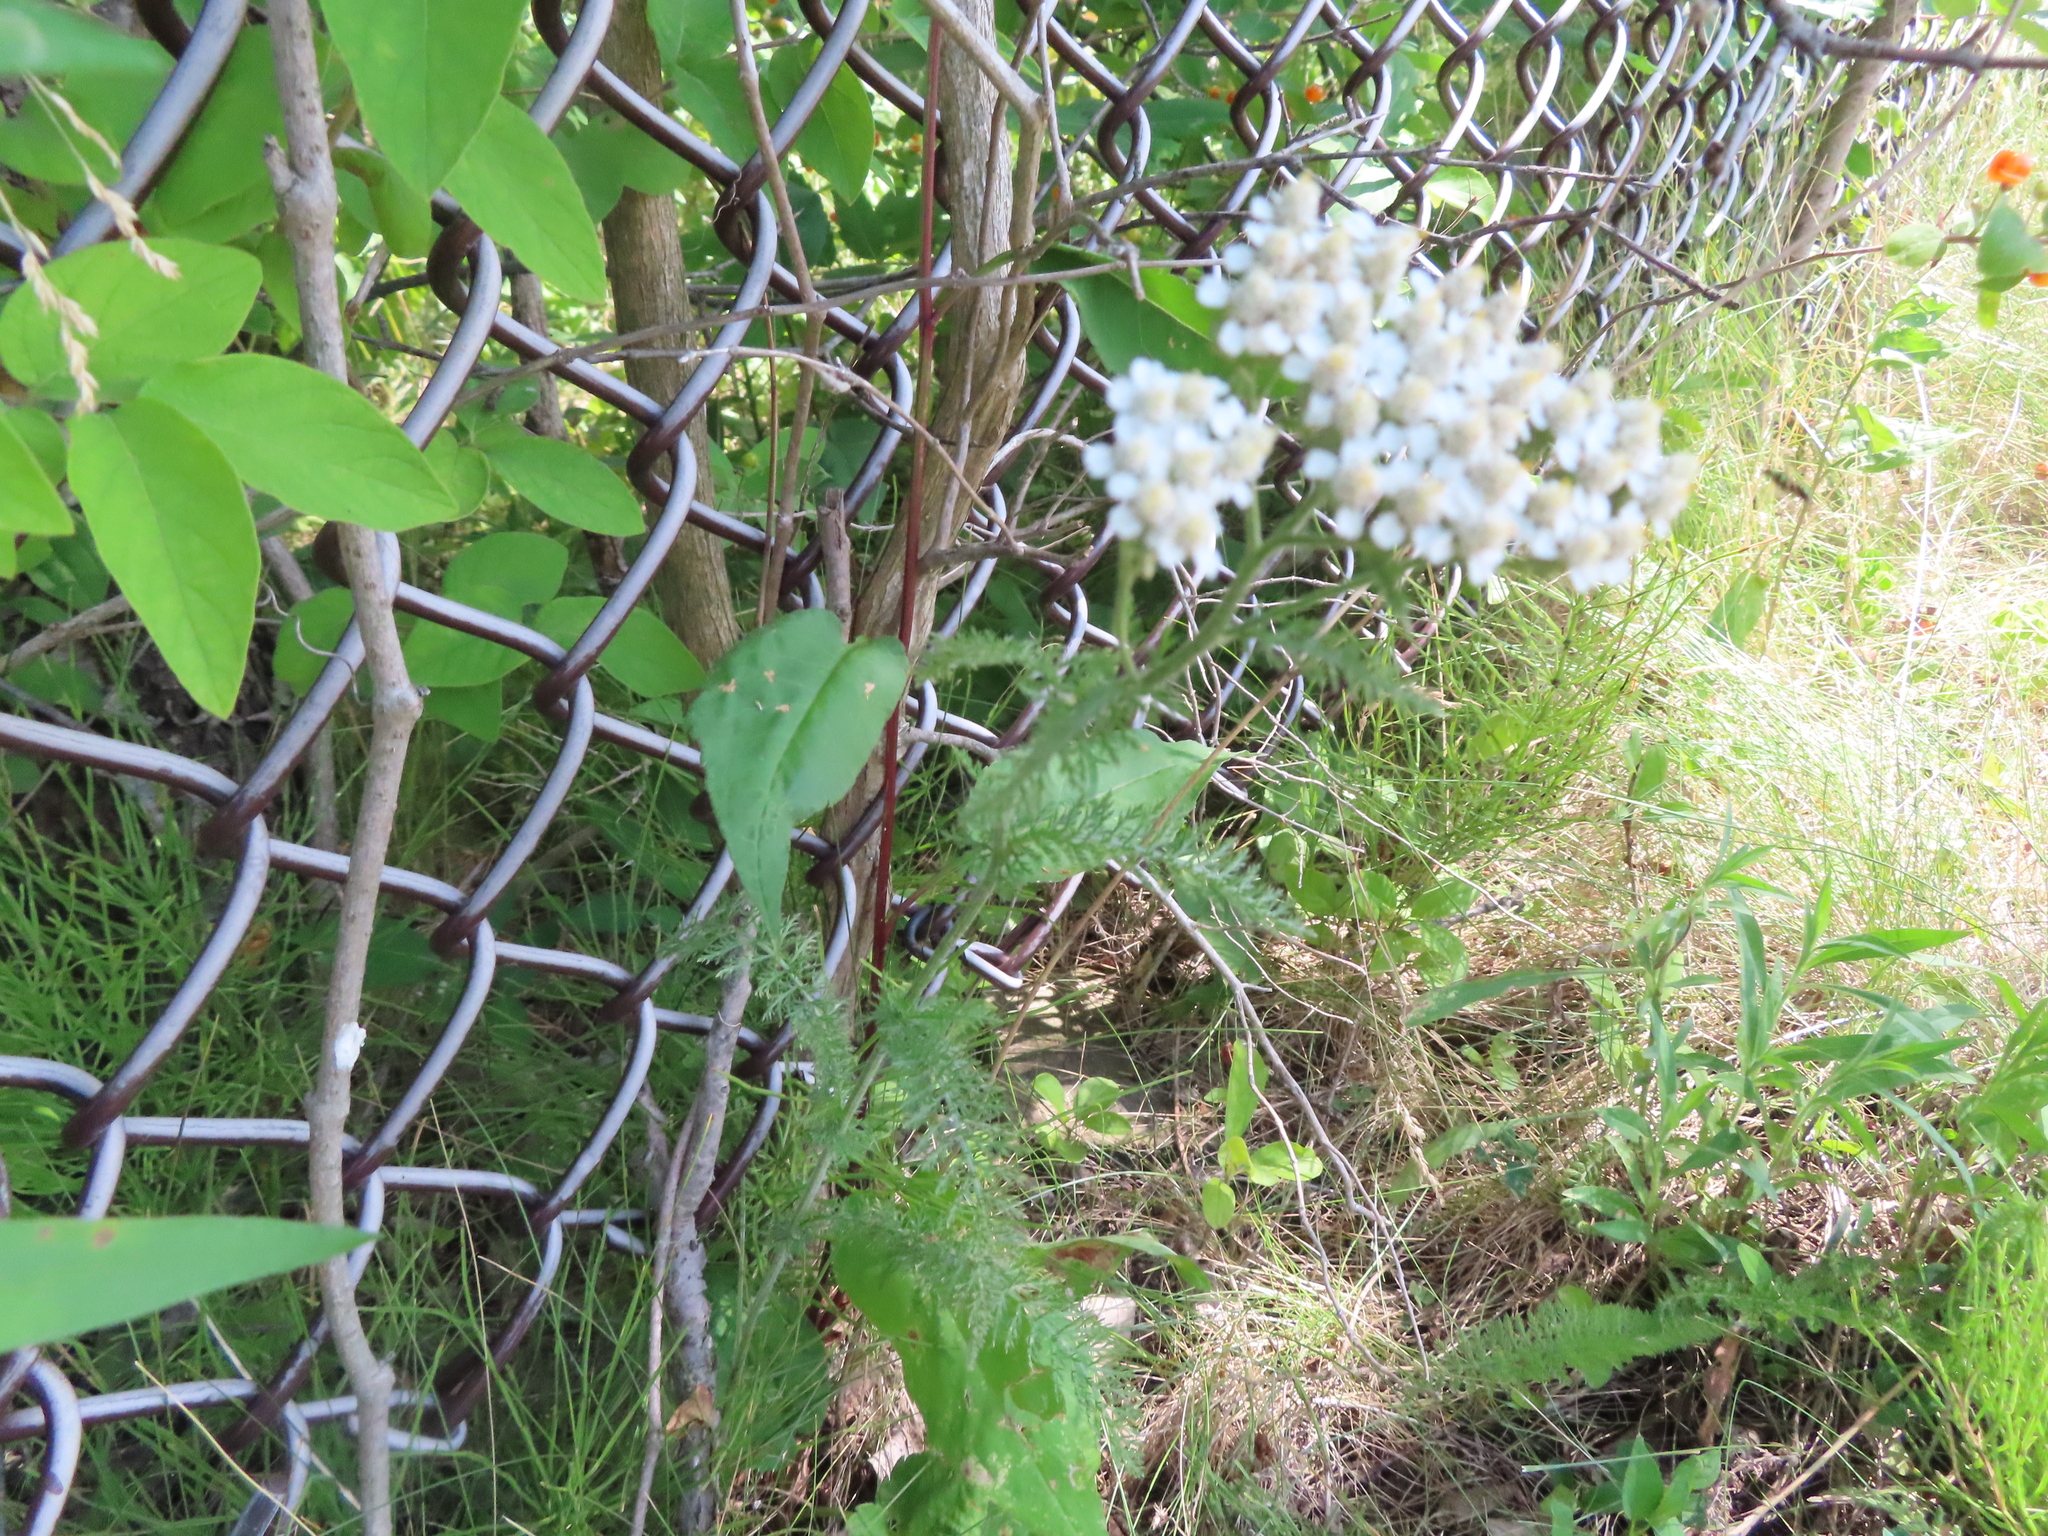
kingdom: Plantae
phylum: Tracheophyta
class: Magnoliopsida
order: Asterales
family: Asteraceae
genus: Achillea
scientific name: Achillea millefolium
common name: Yarrow
